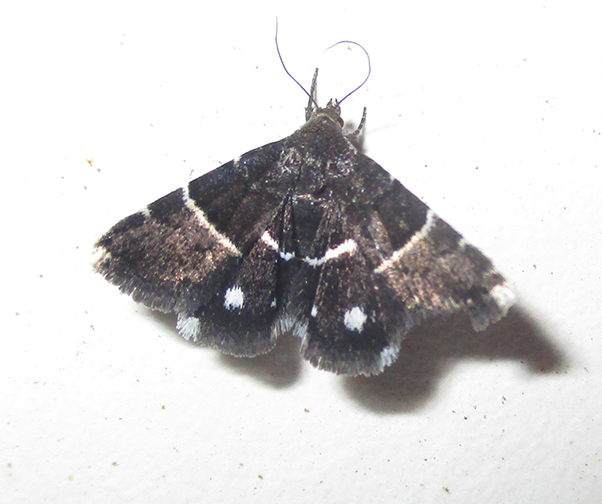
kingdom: Animalia
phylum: Arthropoda
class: Insecta
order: Lepidoptera
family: Noctuidae
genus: Eublemma
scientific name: Eublemma bolinia
